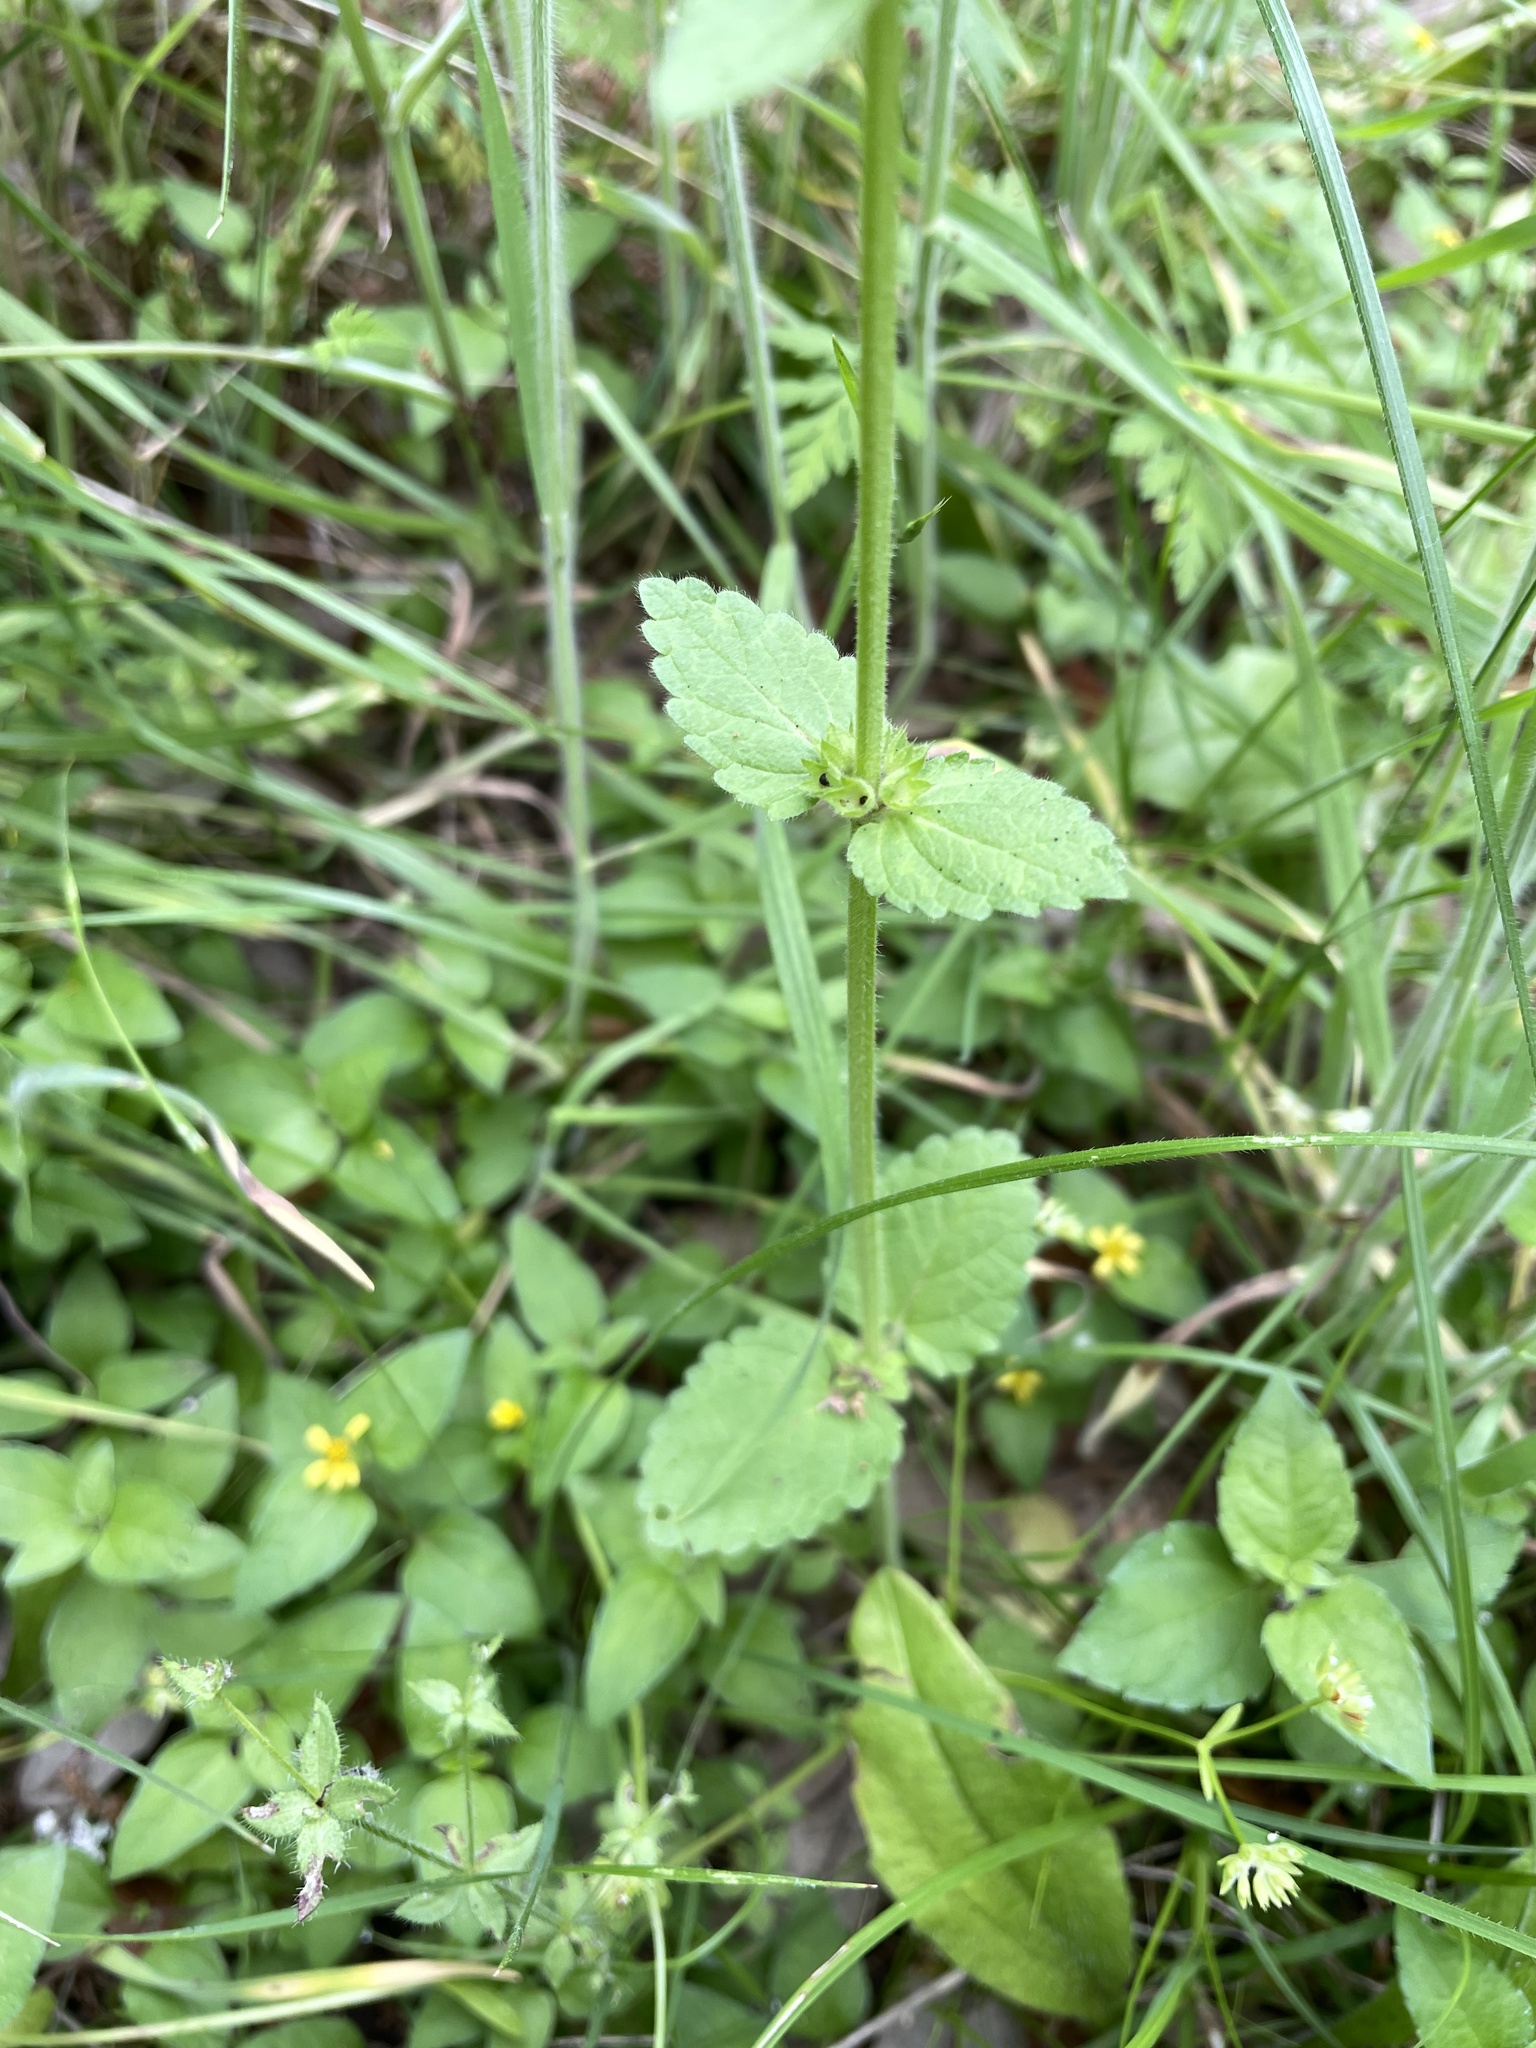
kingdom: Plantae
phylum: Tracheophyta
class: Magnoliopsida
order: Lamiales
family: Lamiaceae
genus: Stachys
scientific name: Stachys
